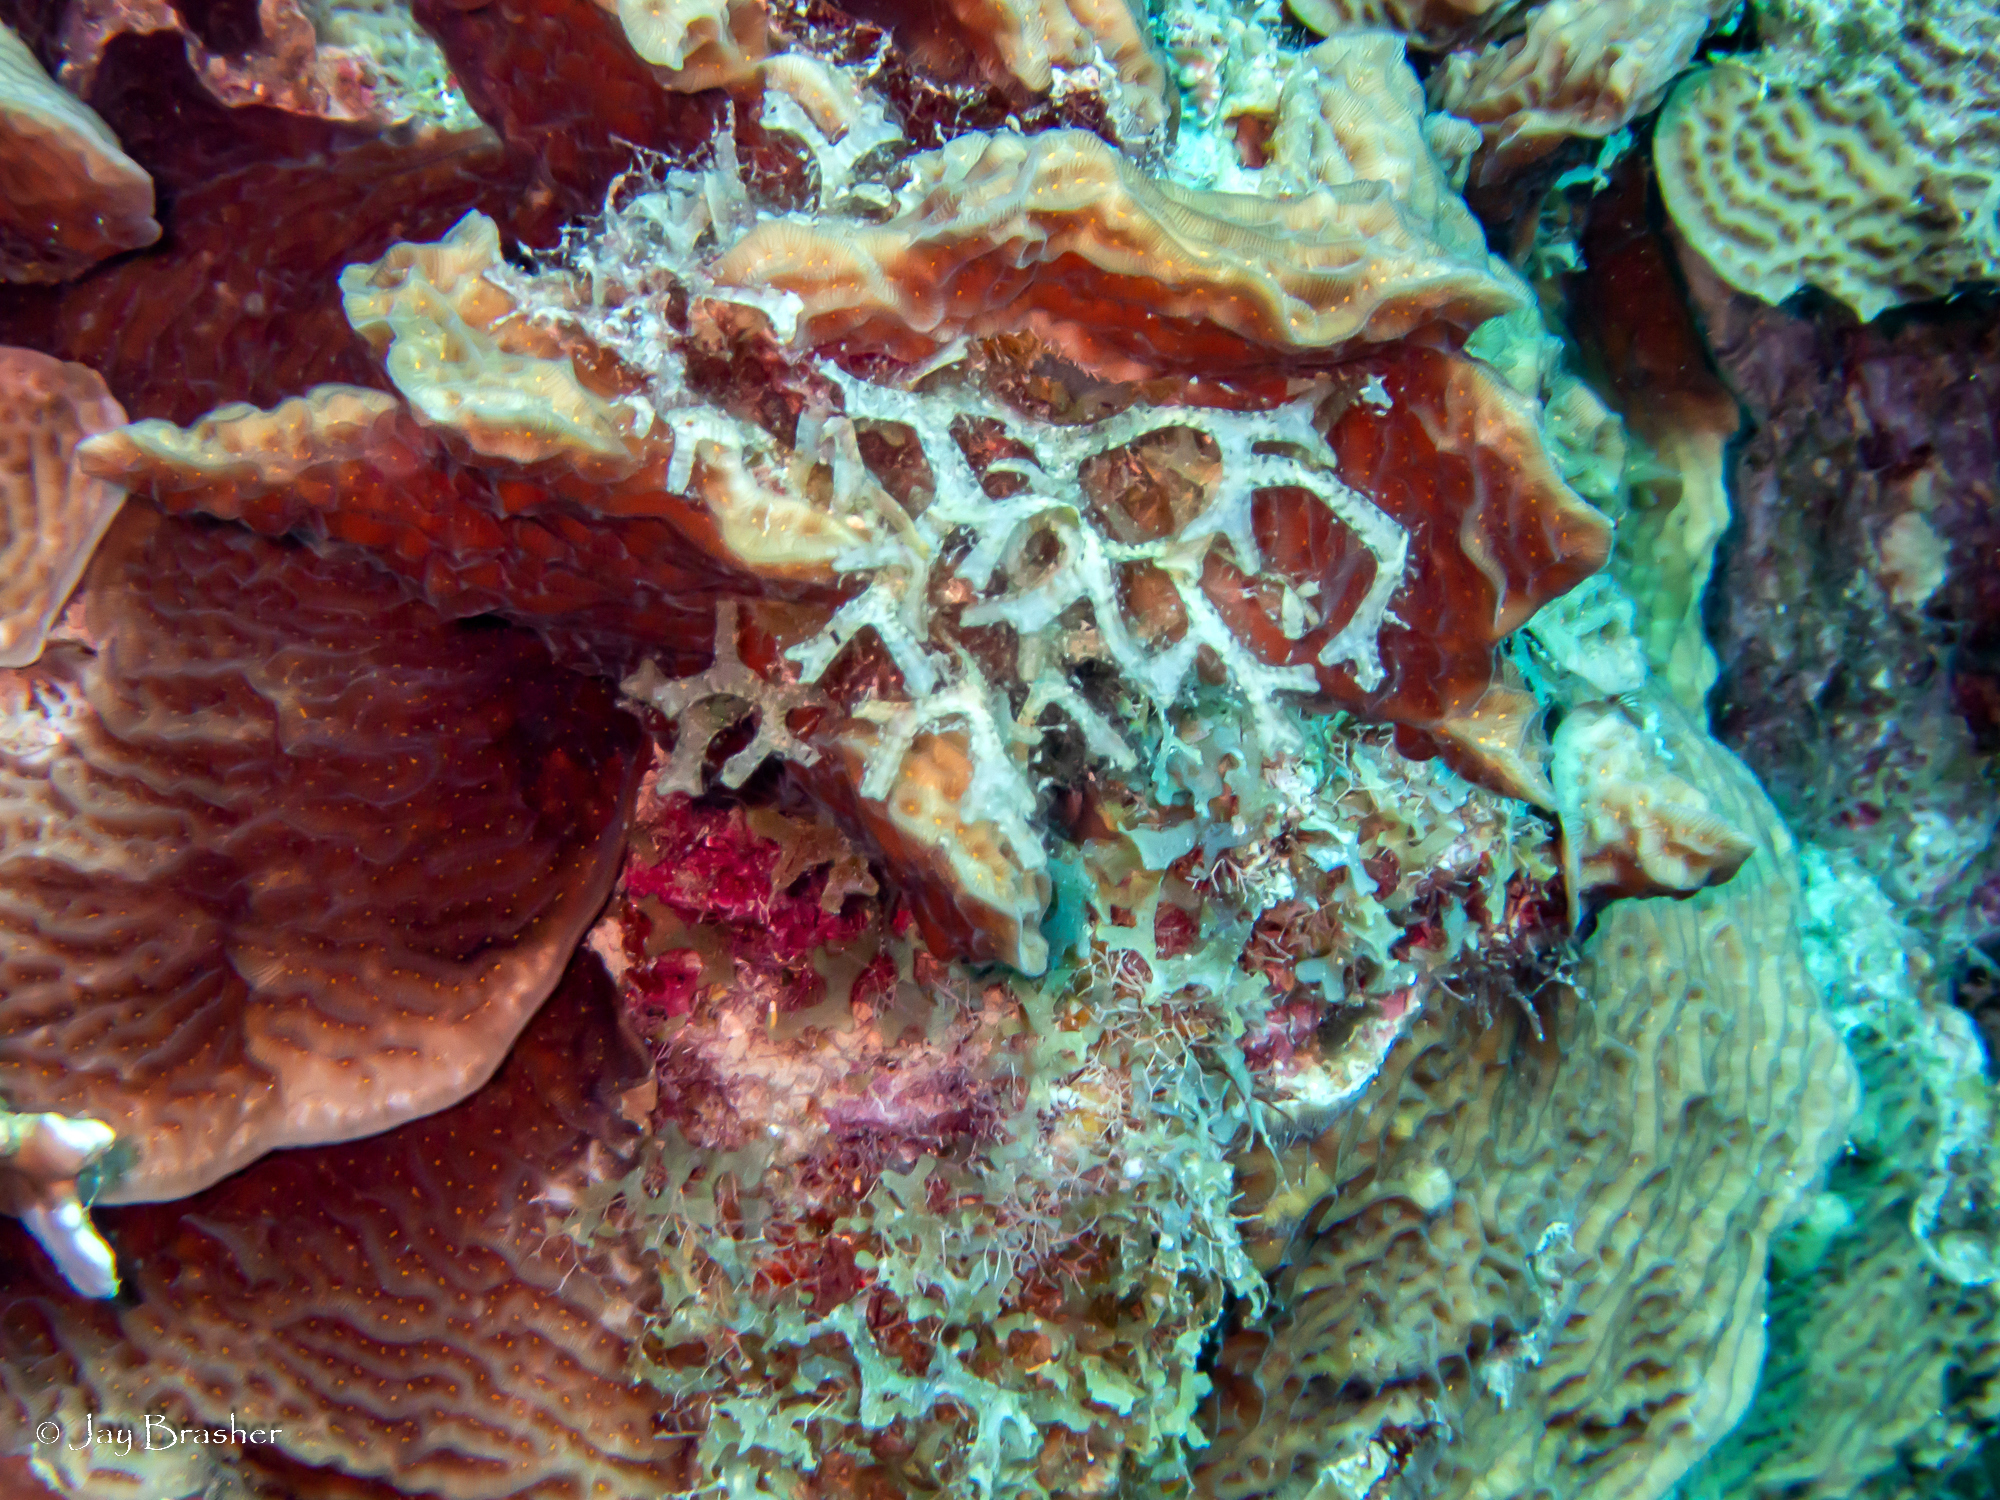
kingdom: Animalia
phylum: Cnidaria
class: Anthozoa
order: Scleractinia
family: Agariciidae
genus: Agaricia
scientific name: Agaricia agaricites
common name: Lettuce coral
